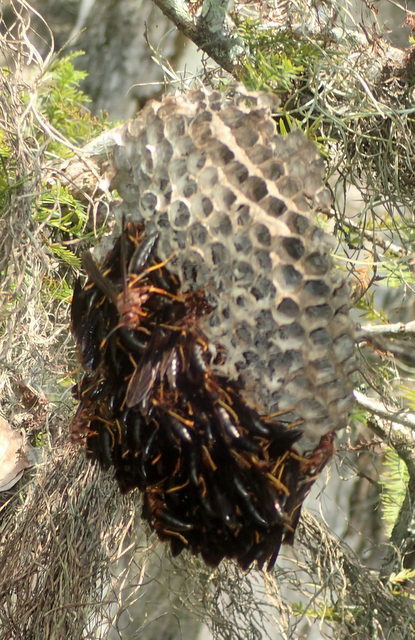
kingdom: Animalia
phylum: Arthropoda
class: Insecta
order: Hymenoptera
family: Eumenidae
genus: Polistes
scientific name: Polistes annularis
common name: Ringed paper wasp
